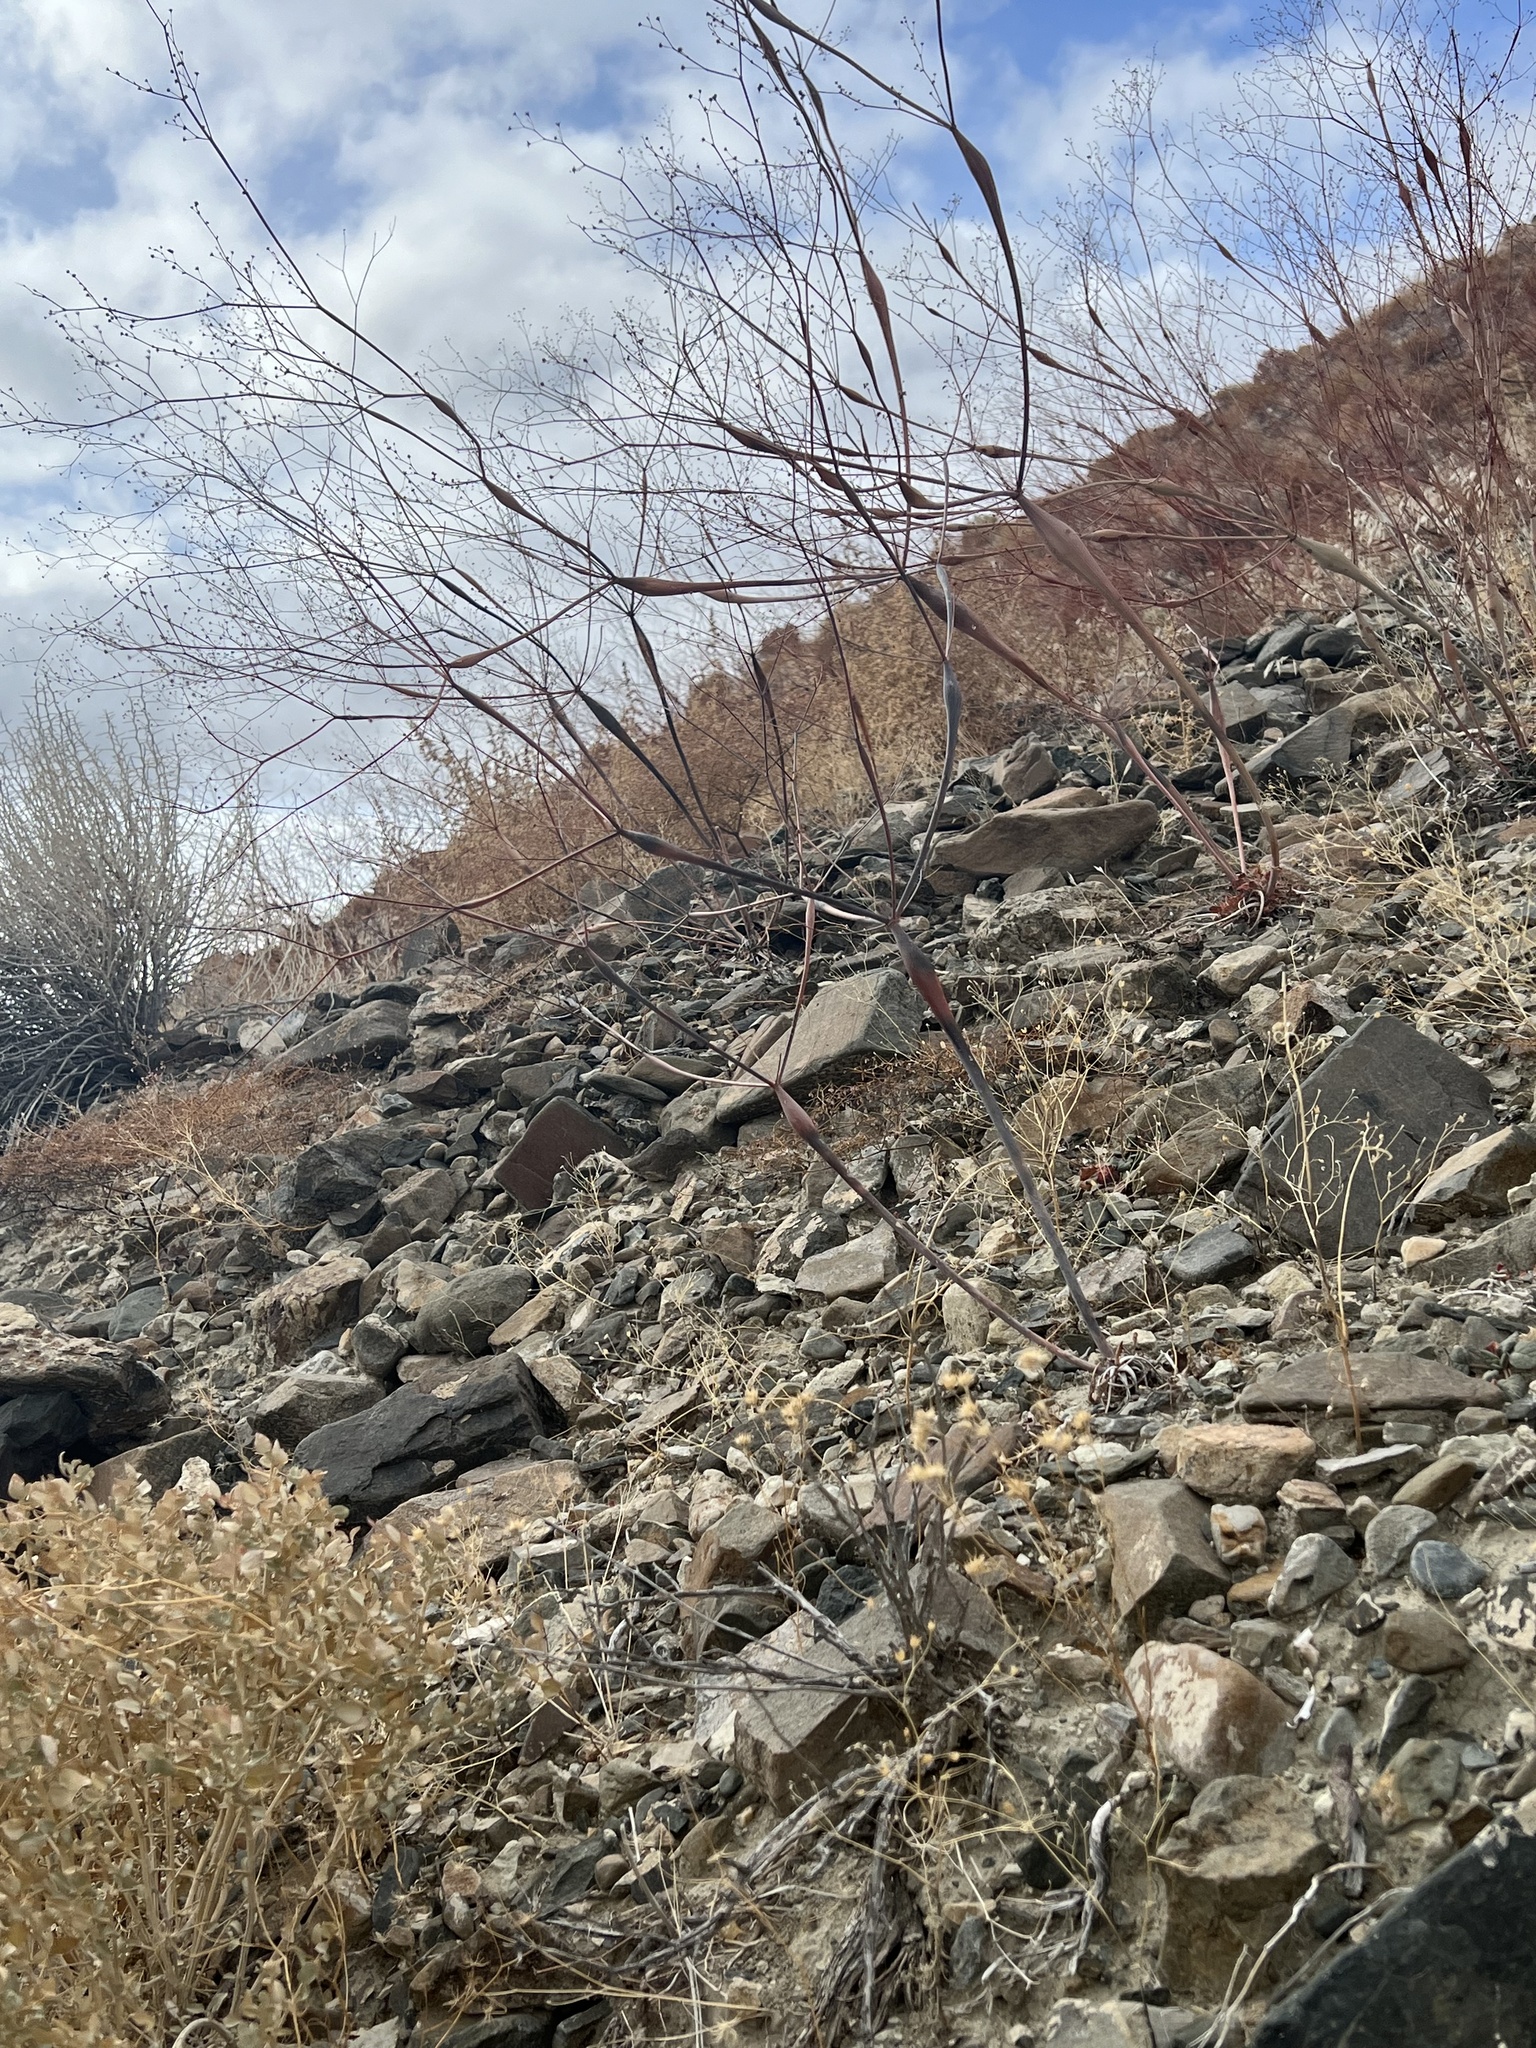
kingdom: Plantae
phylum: Tracheophyta
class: Magnoliopsida
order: Caryophyllales
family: Polygonaceae
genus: Eriogonum
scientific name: Eriogonum inflatum
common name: Desert trumpet
